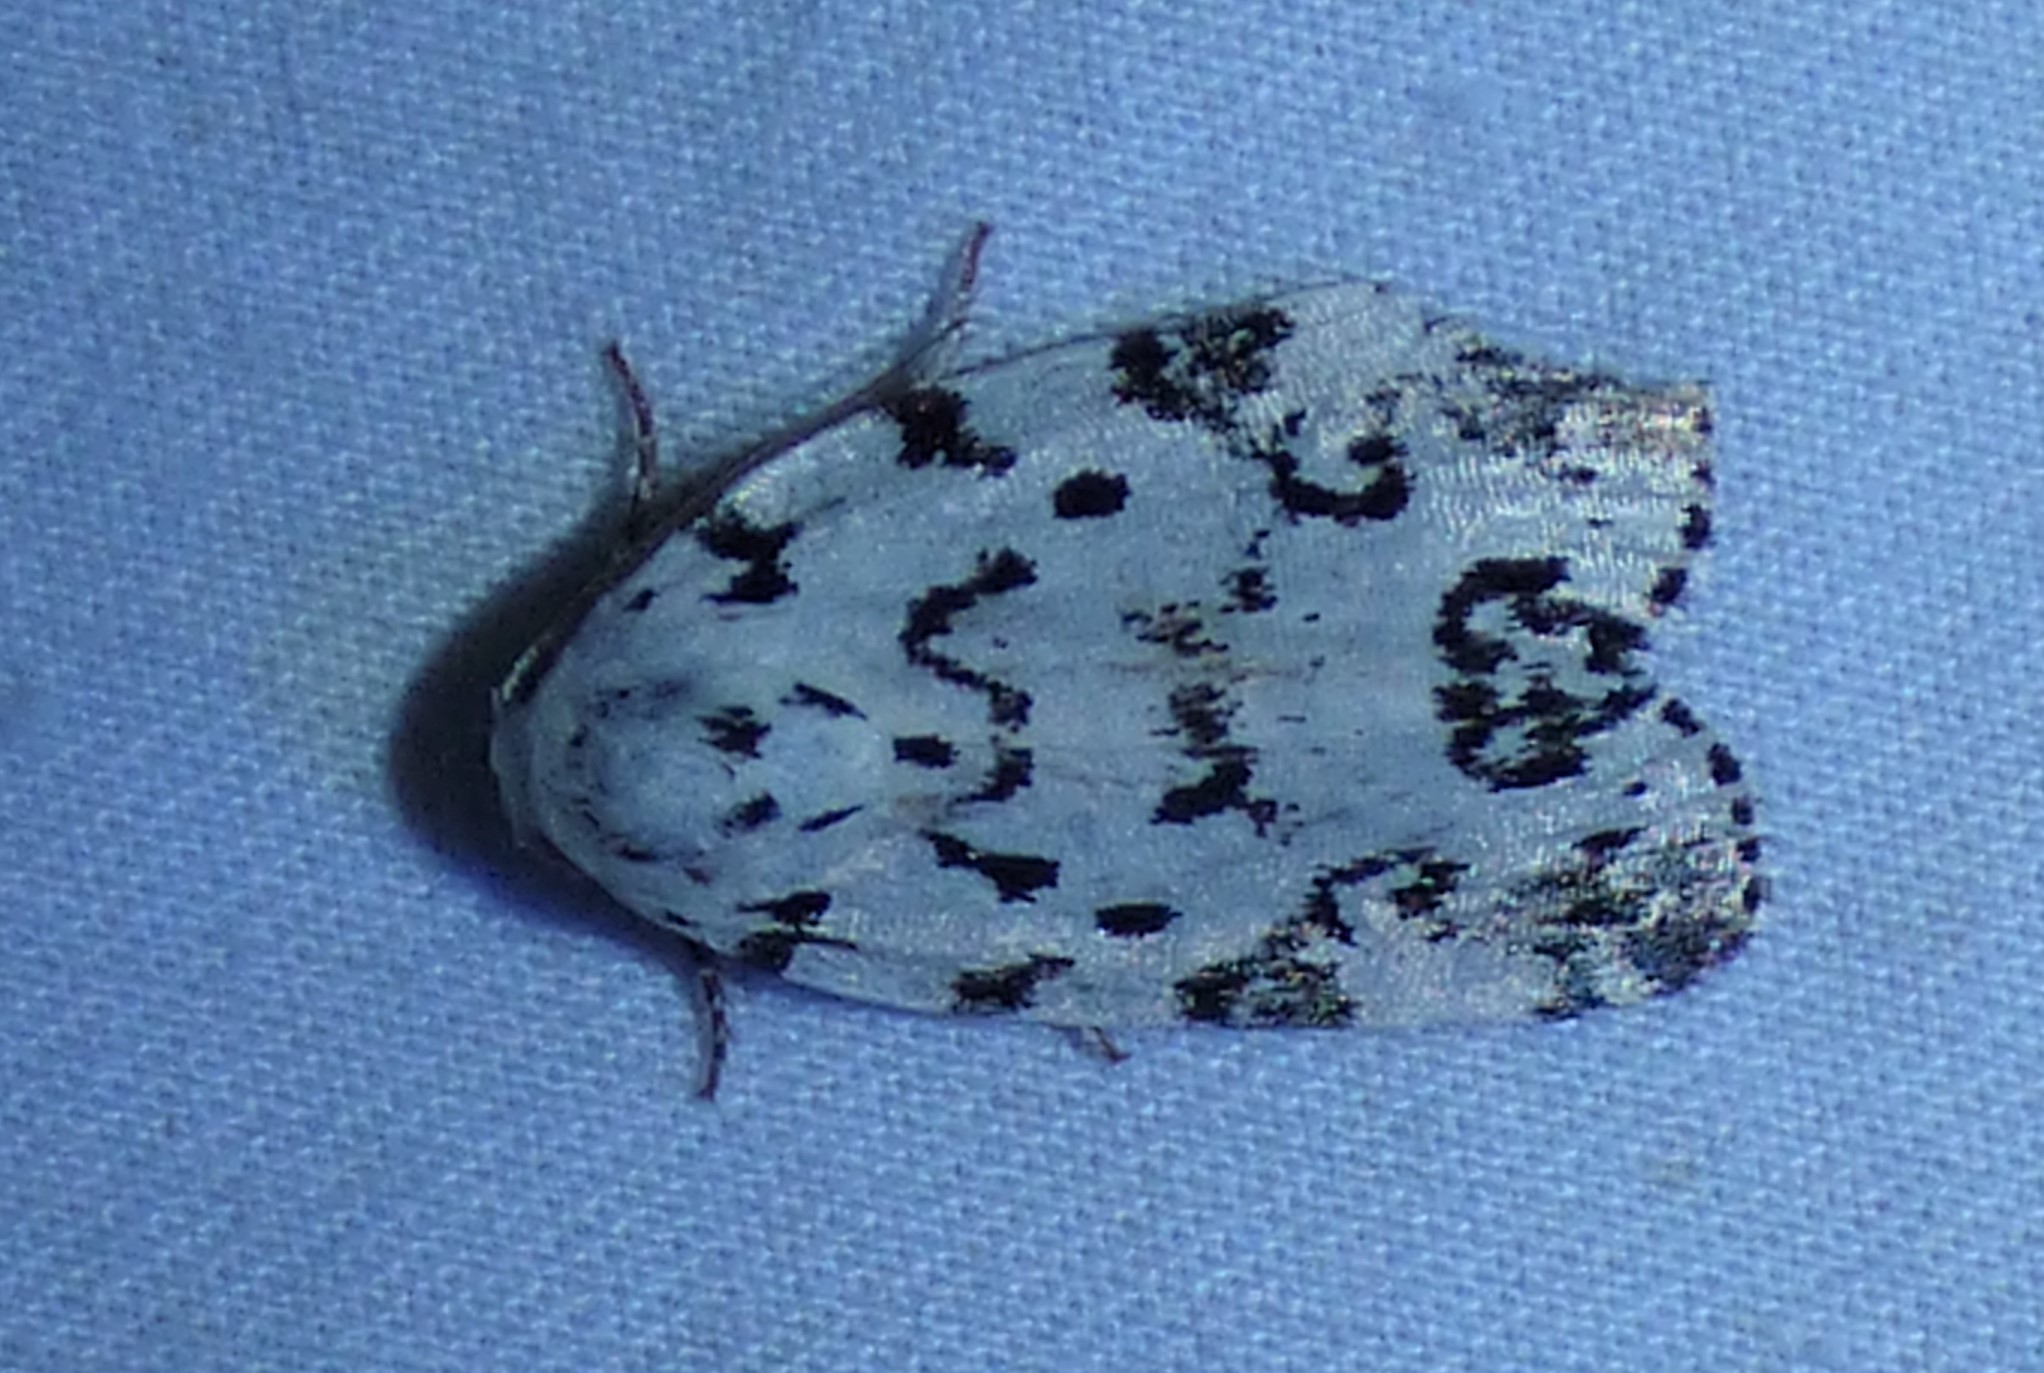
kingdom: Animalia
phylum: Arthropoda
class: Insecta
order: Lepidoptera
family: Noctuidae
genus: Polygrammate
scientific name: Polygrammate hebraeicum
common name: Hebrew moth
